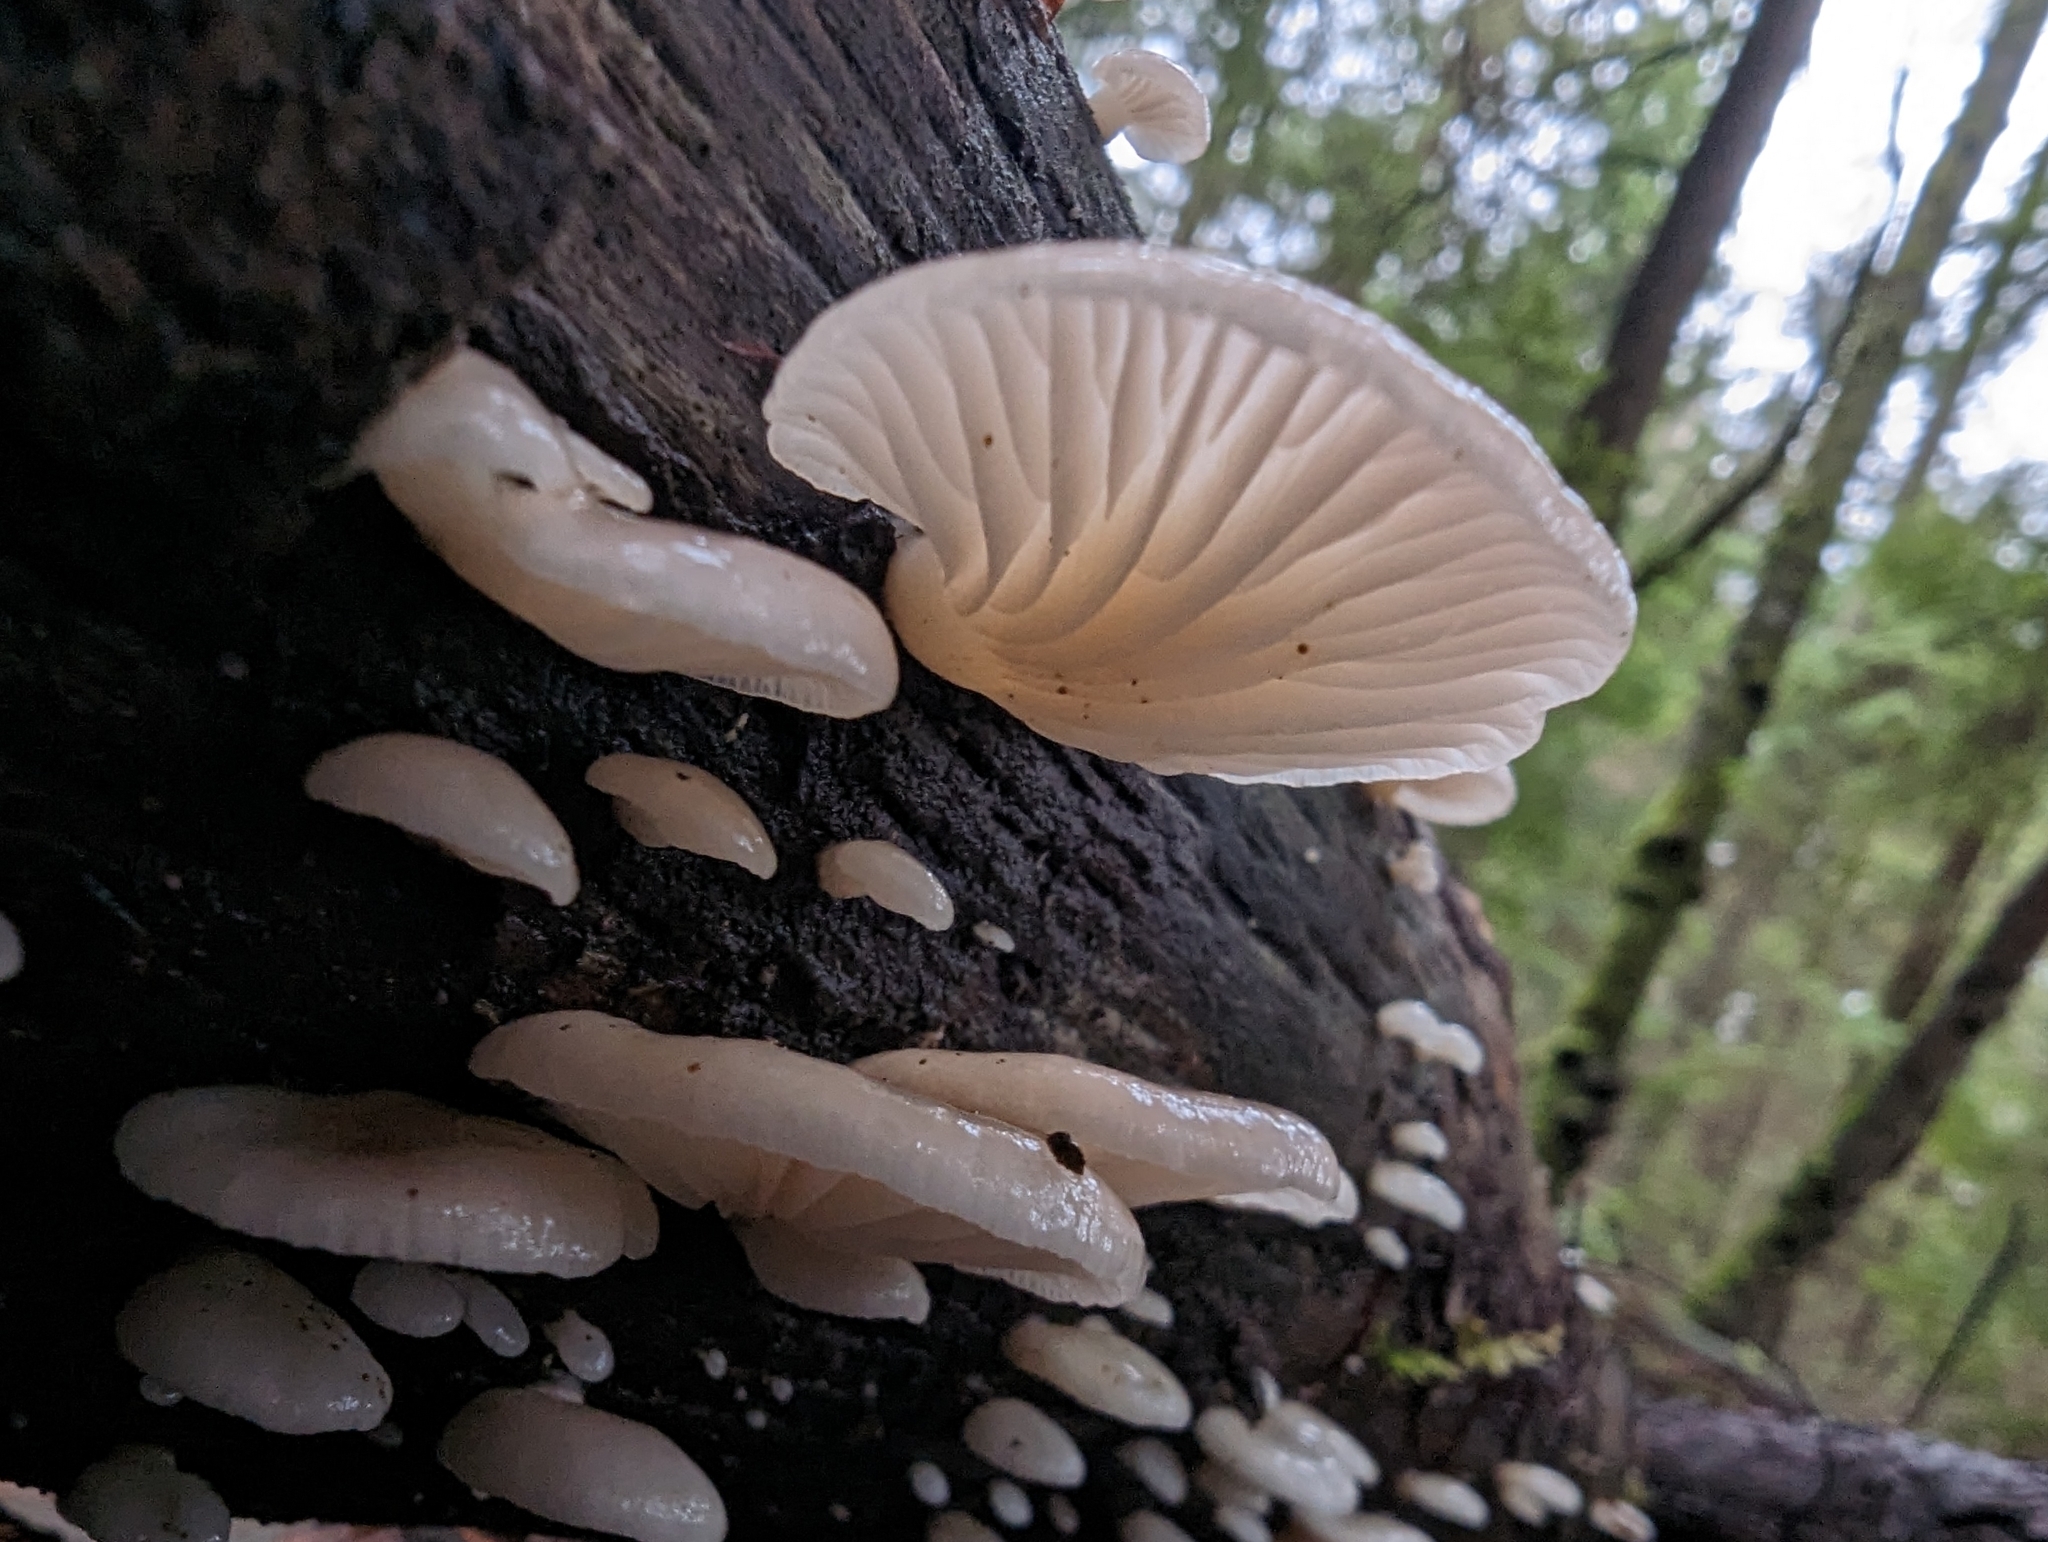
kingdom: Fungi
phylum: Basidiomycota
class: Agaricomycetes
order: Agaricales
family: Mycenaceae
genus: Panellus
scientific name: Panellus longinquus
